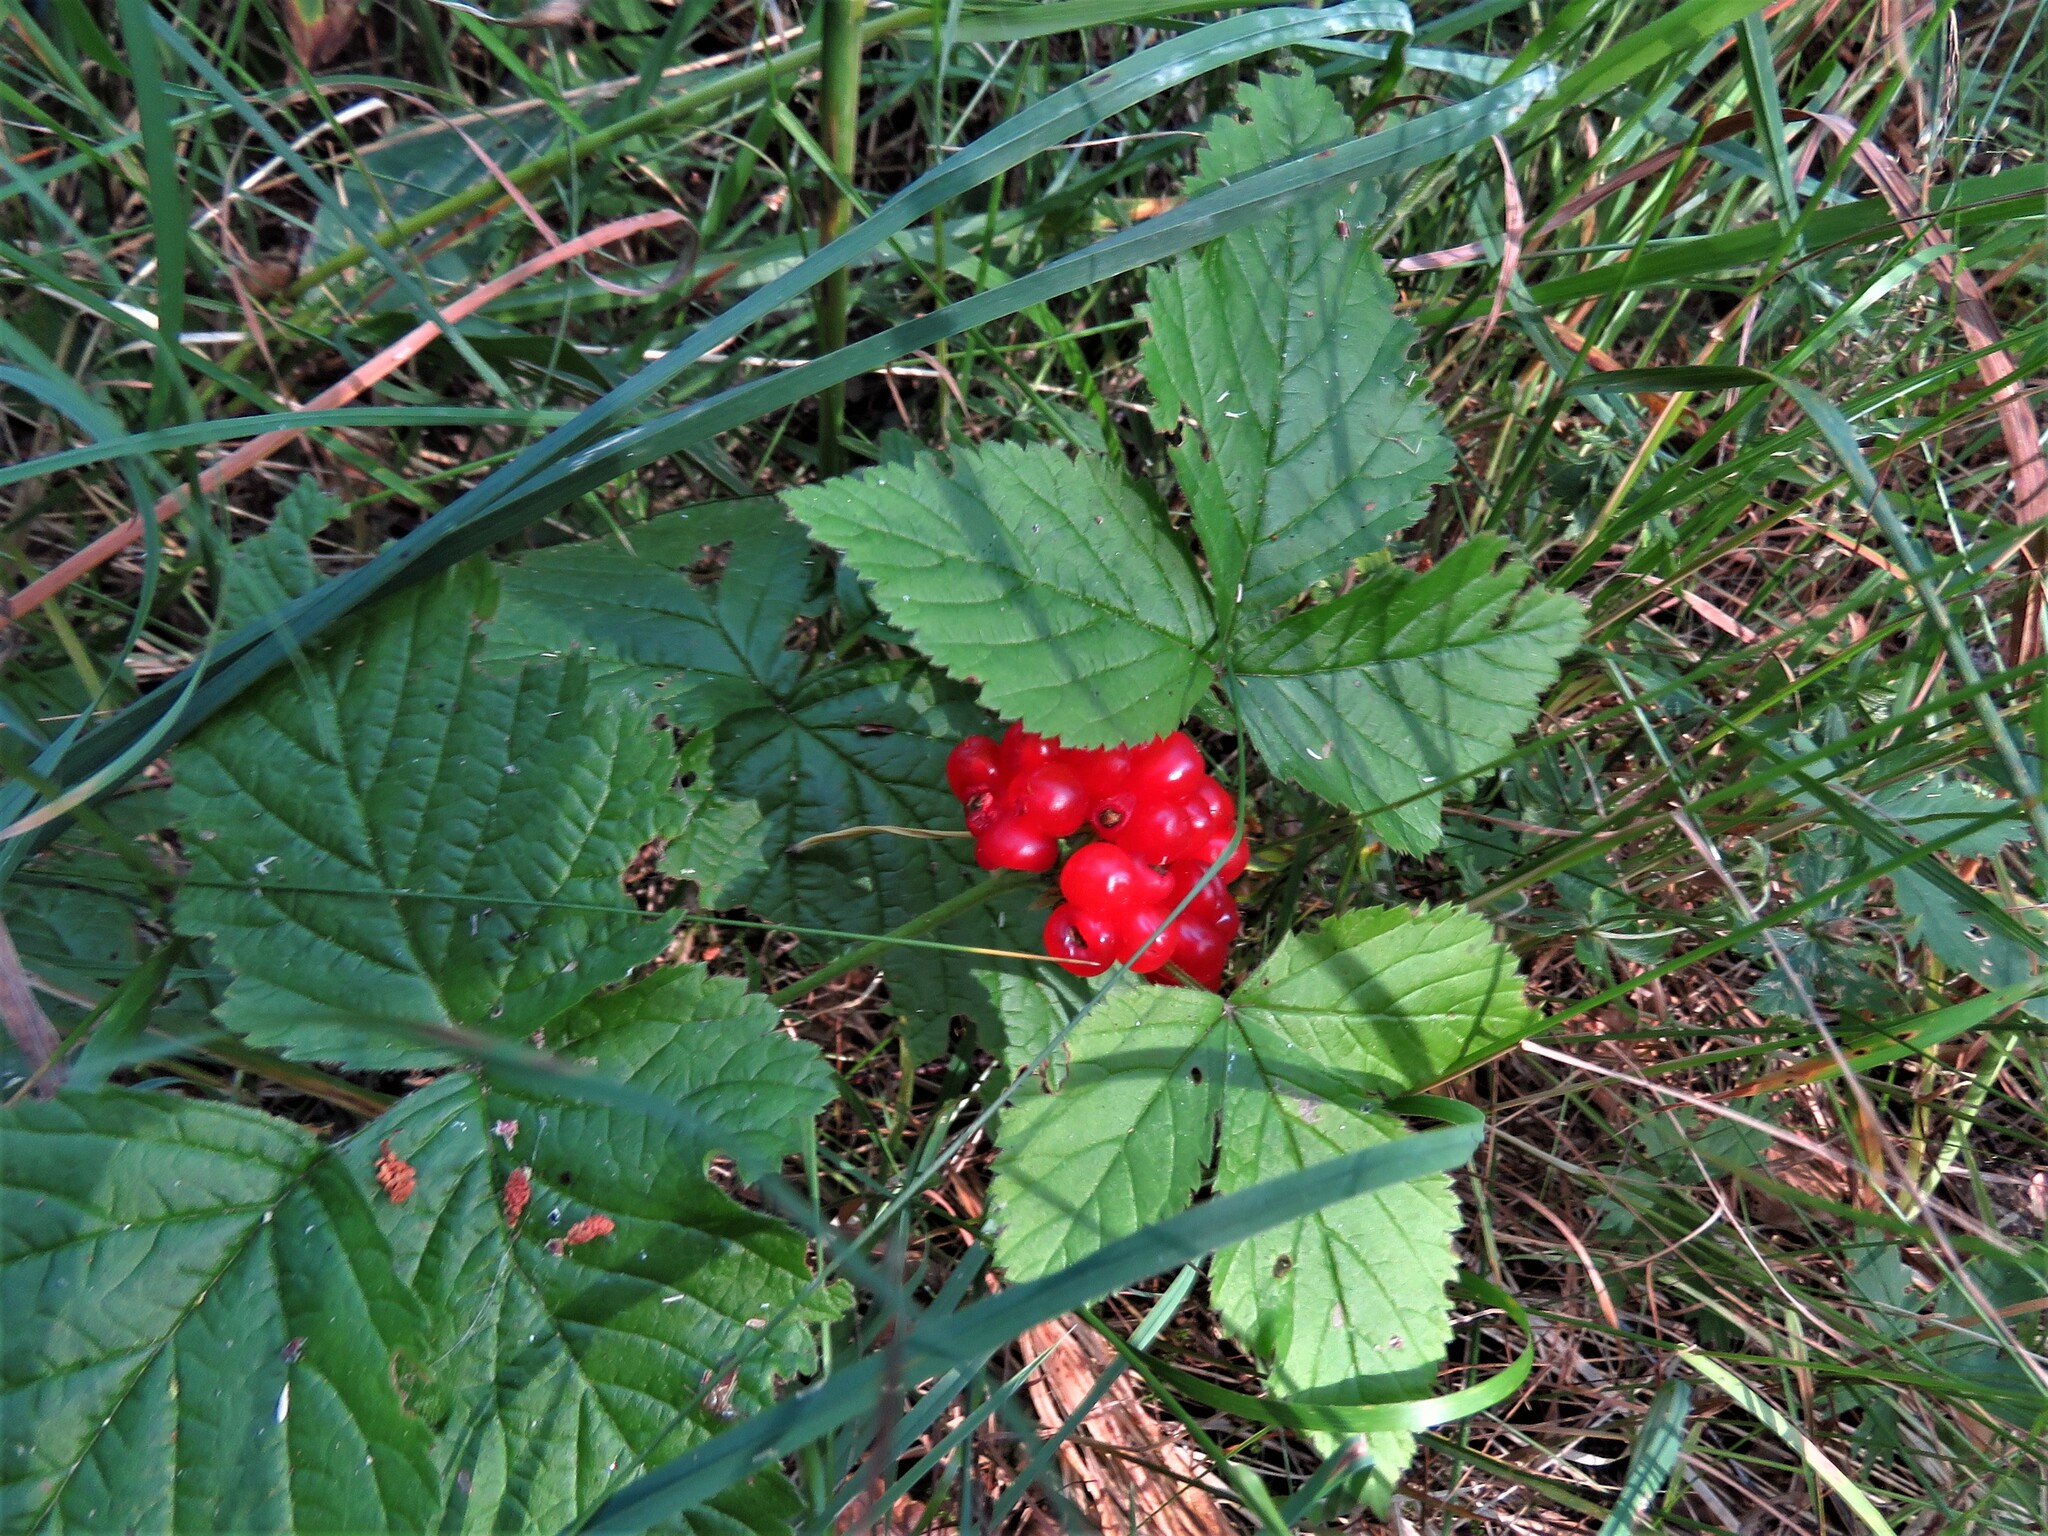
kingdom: Plantae
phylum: Tracheophyta
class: Magnoliopsida
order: Rosales
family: Rosaceae
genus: Rubus
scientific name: Rubus saxatilis
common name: Stone bramble
